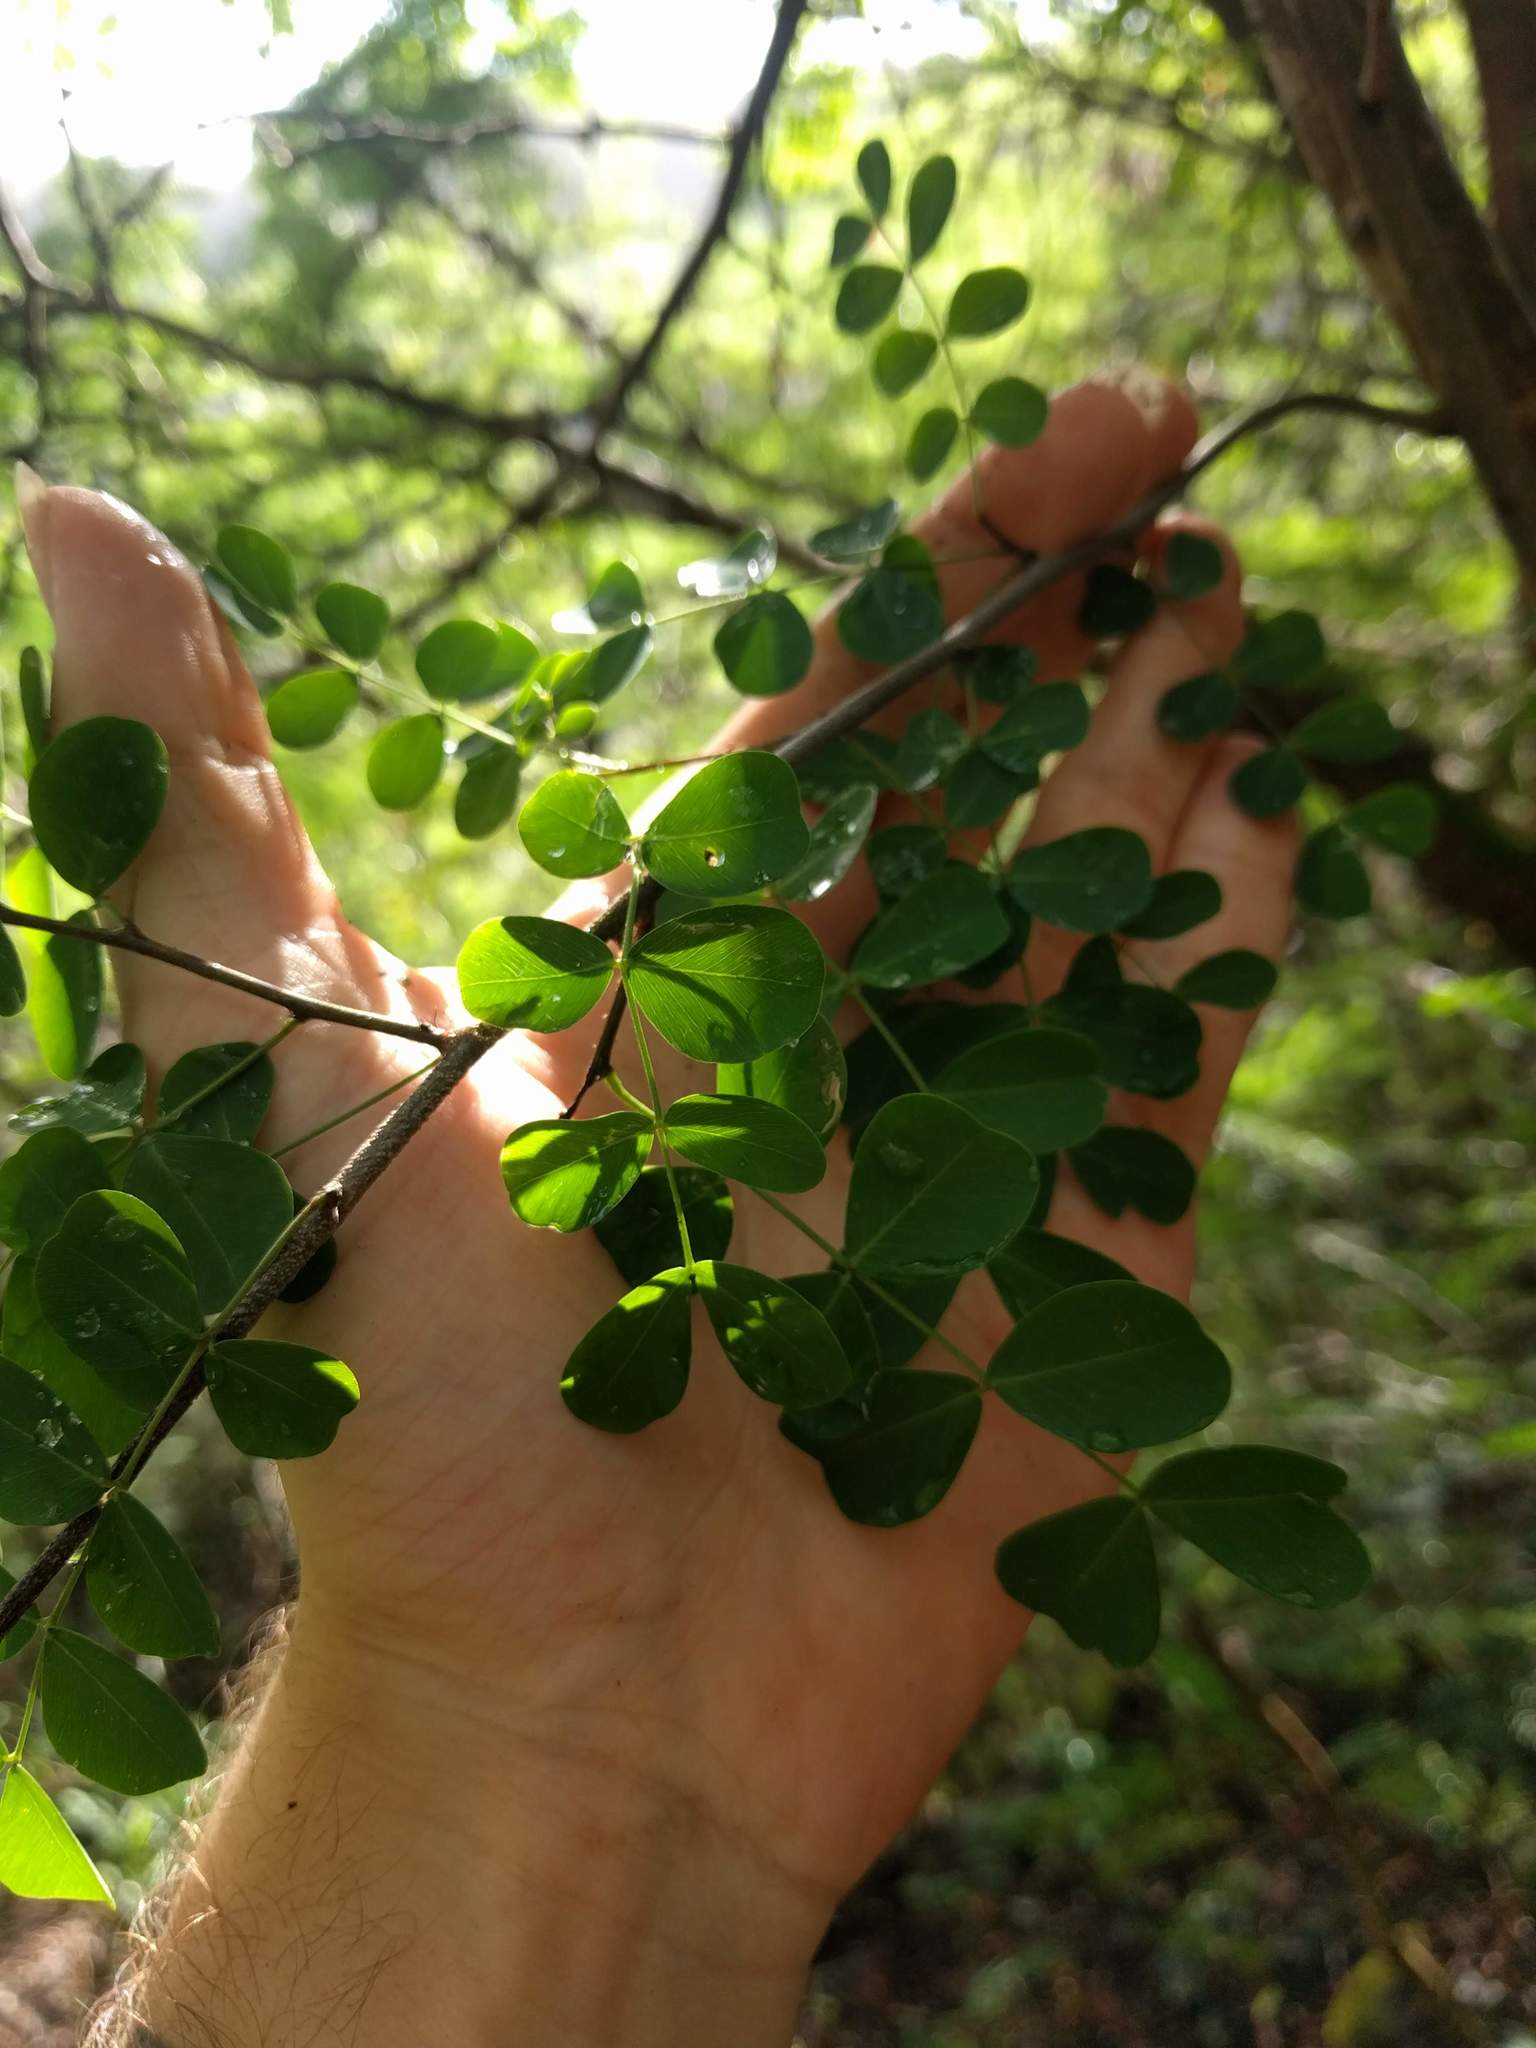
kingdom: Plantae
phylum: Tracheophyta
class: Magnoliopsida
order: Fabales
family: Fabaceae
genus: Haematoxylum
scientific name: Haematoxylum campechianum
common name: Logwood
